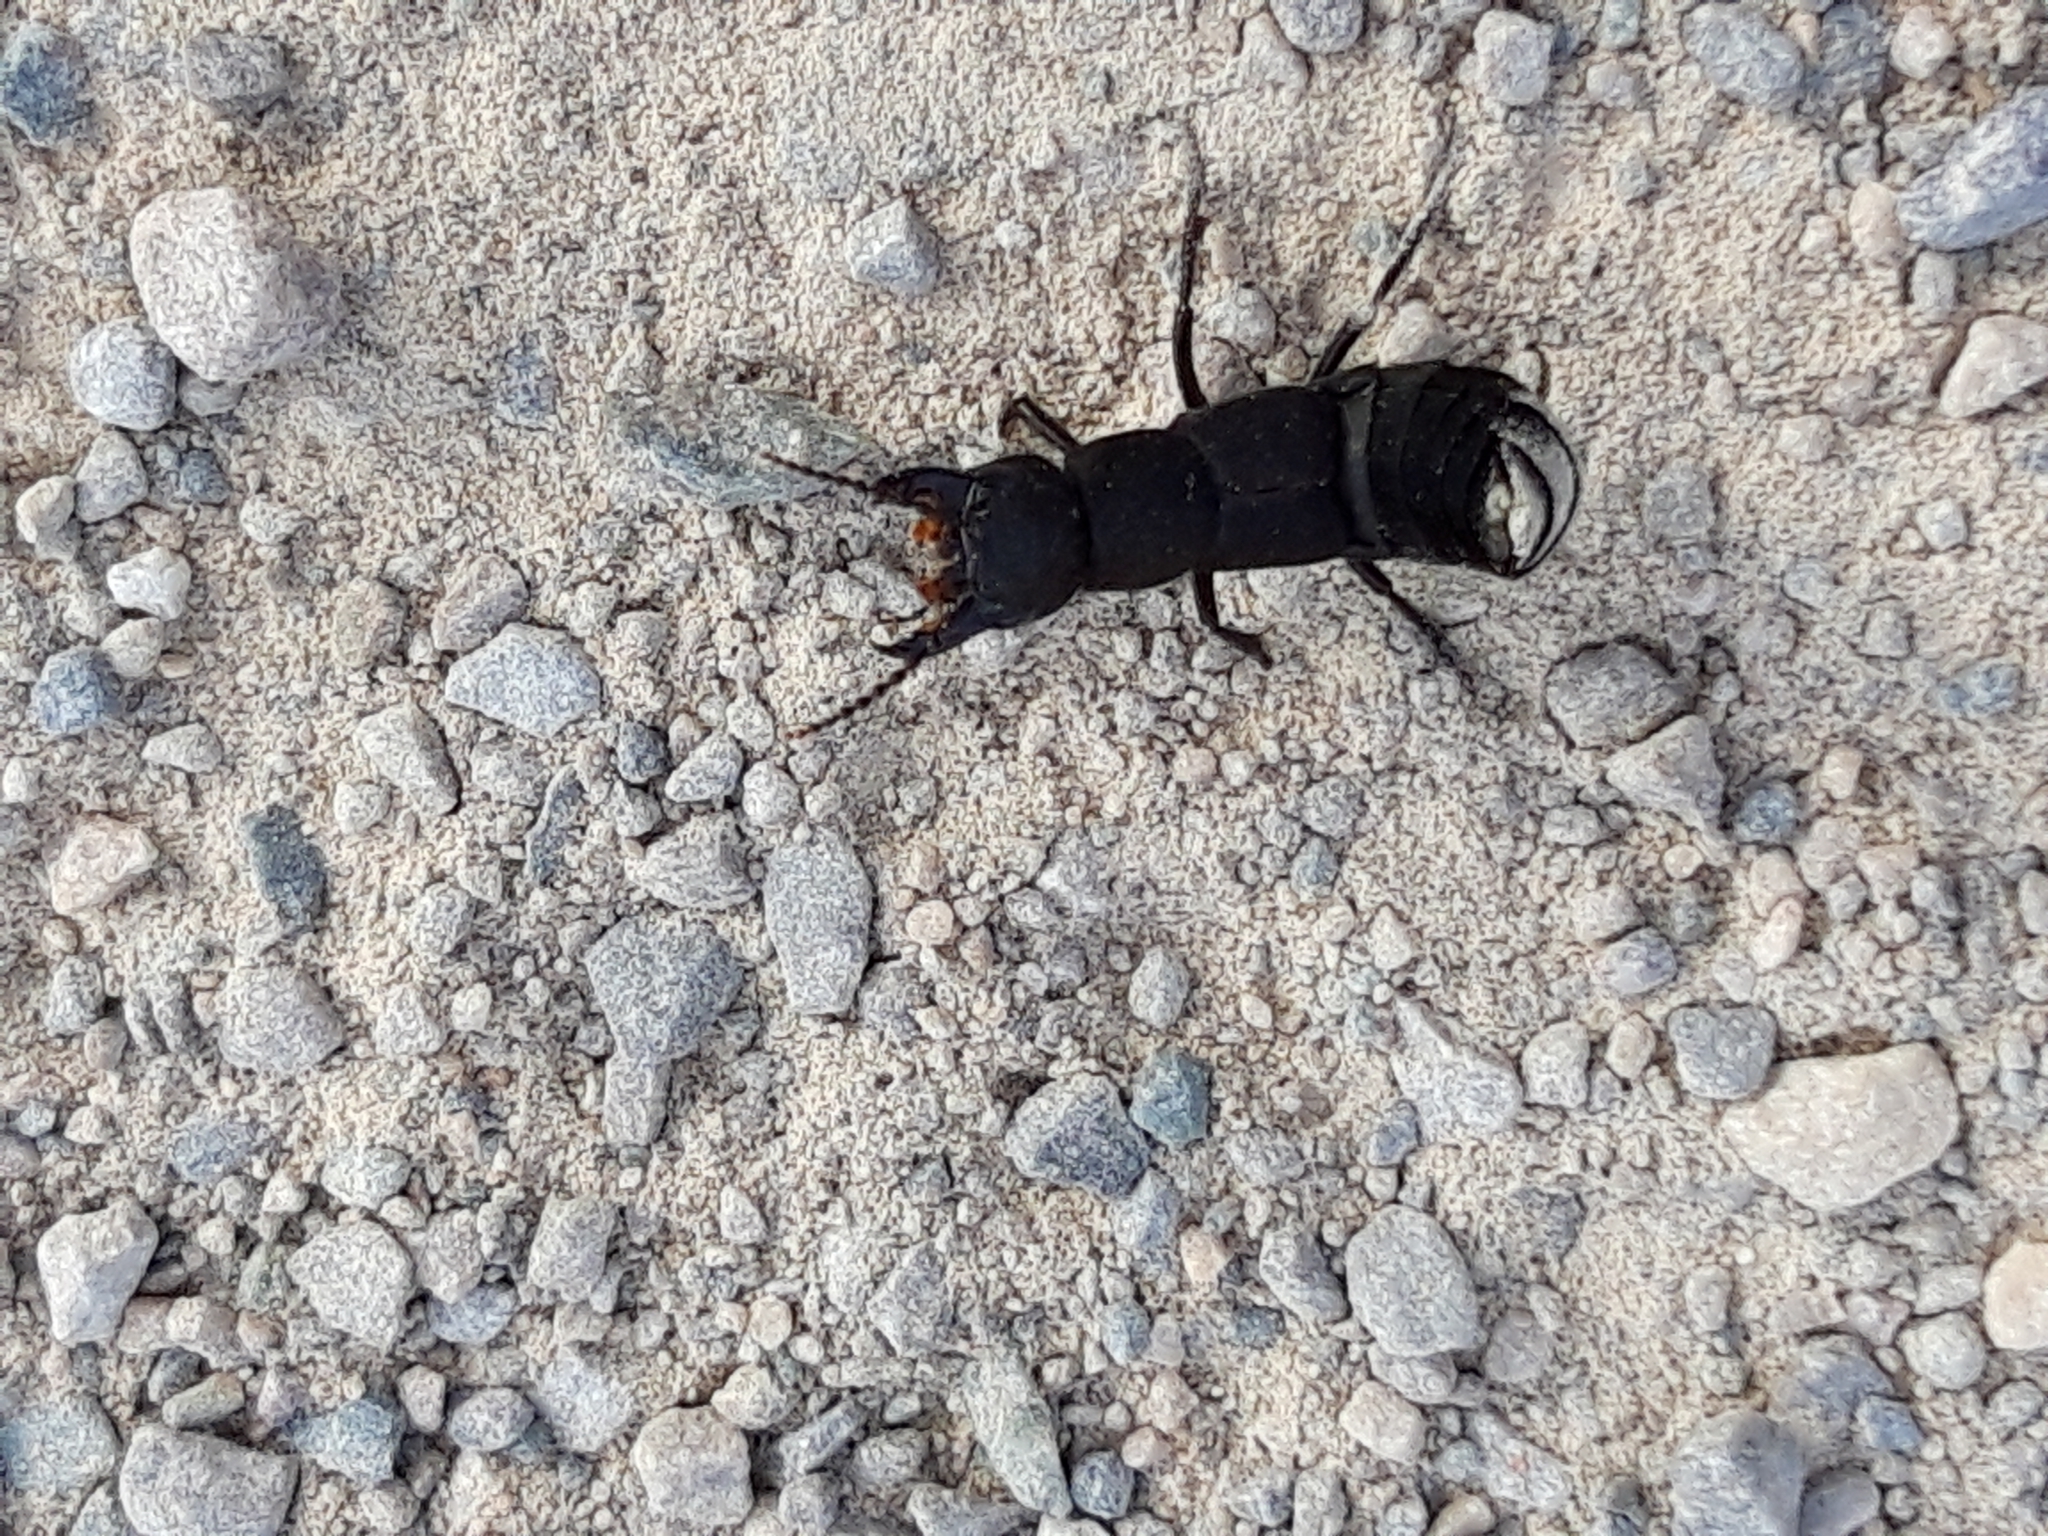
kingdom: Animalia
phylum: Arthropoda
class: Insecta
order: Coleoptera
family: Staphylinidae
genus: Ocypus
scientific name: Ocypus olens
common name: Devil's coach-horse
